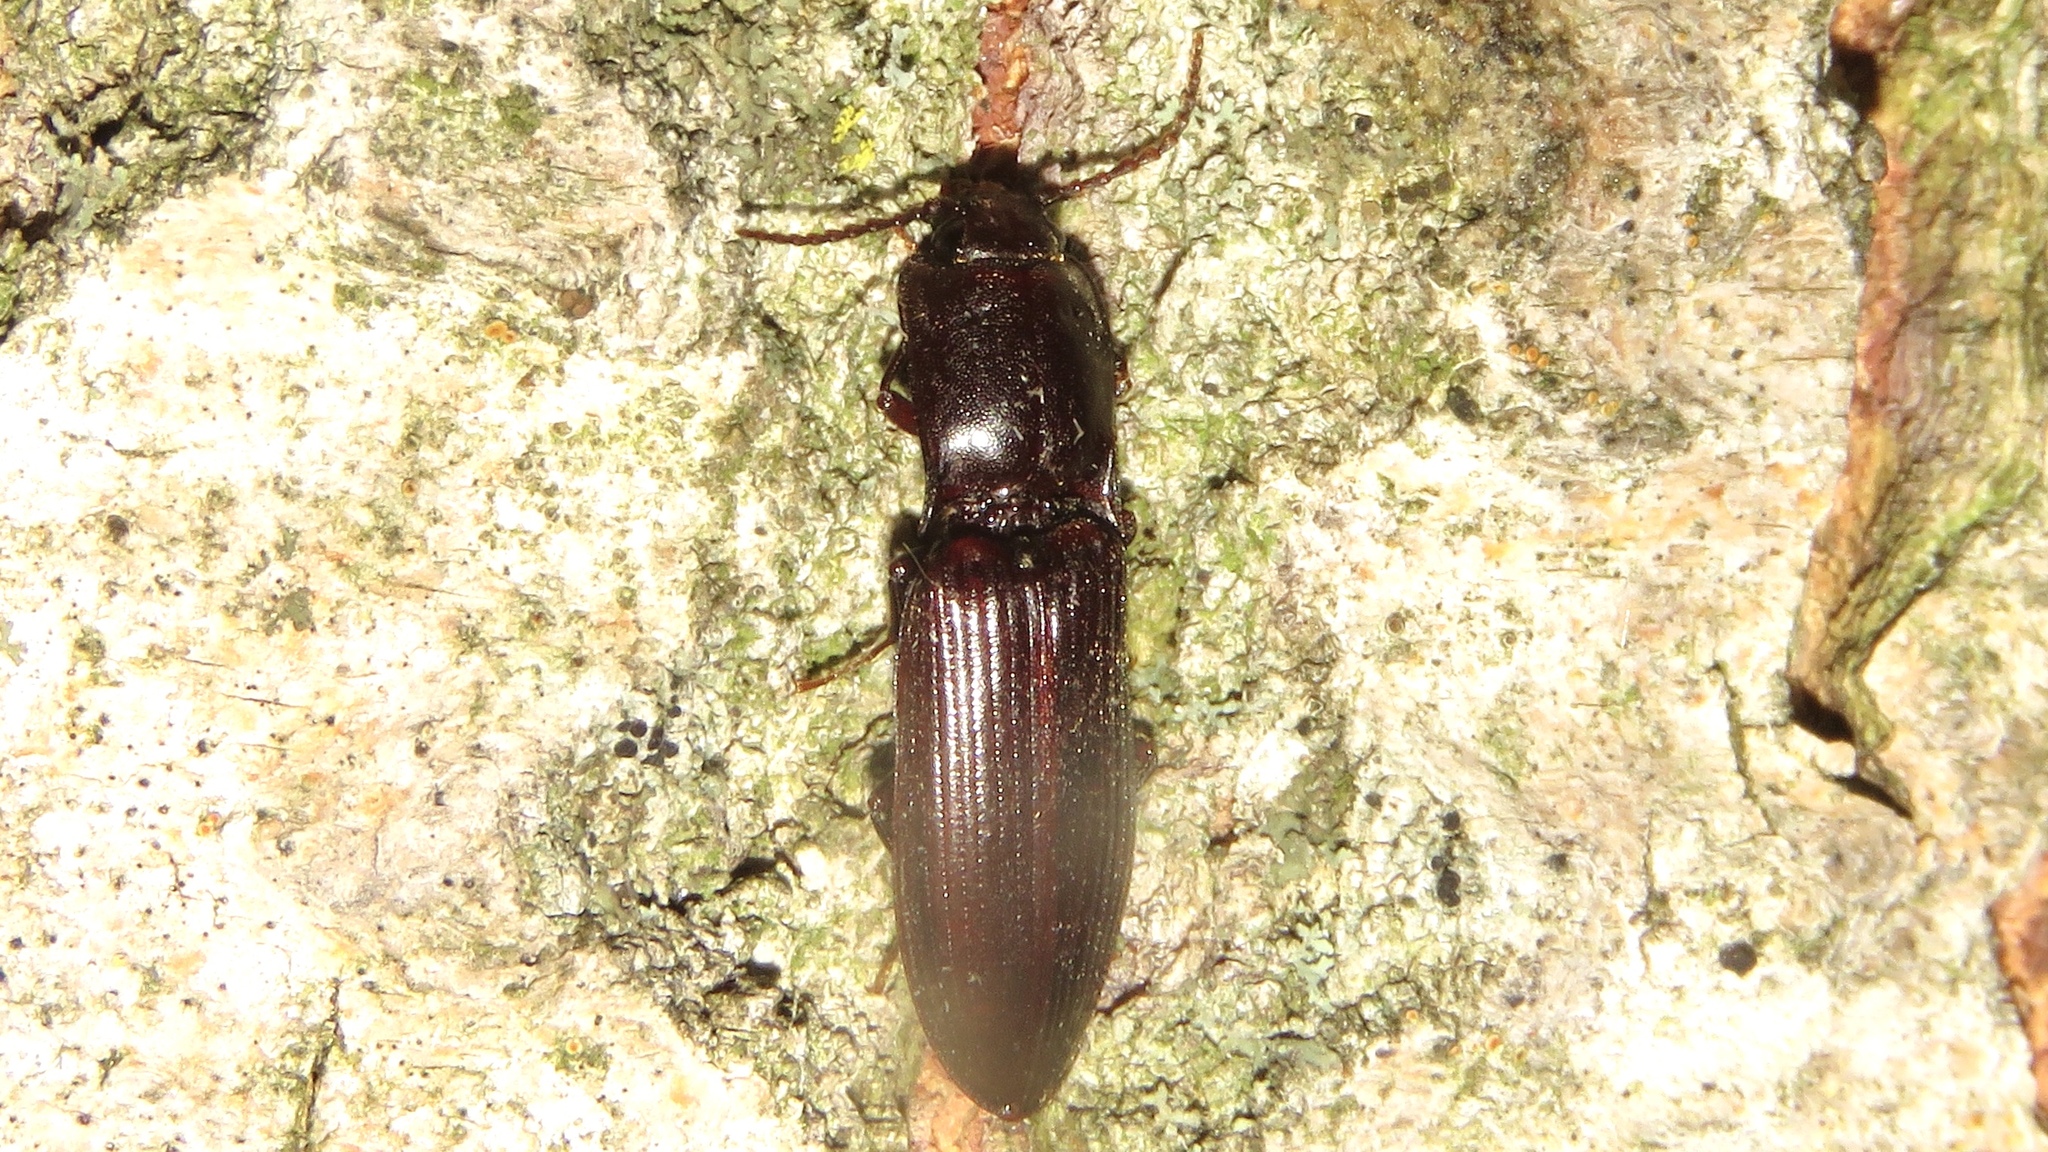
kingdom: Animalia
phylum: Arthropoda
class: Insecta
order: Coleoptera
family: Elateridae
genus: Laneganus
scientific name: Laneganus sulcicollis
